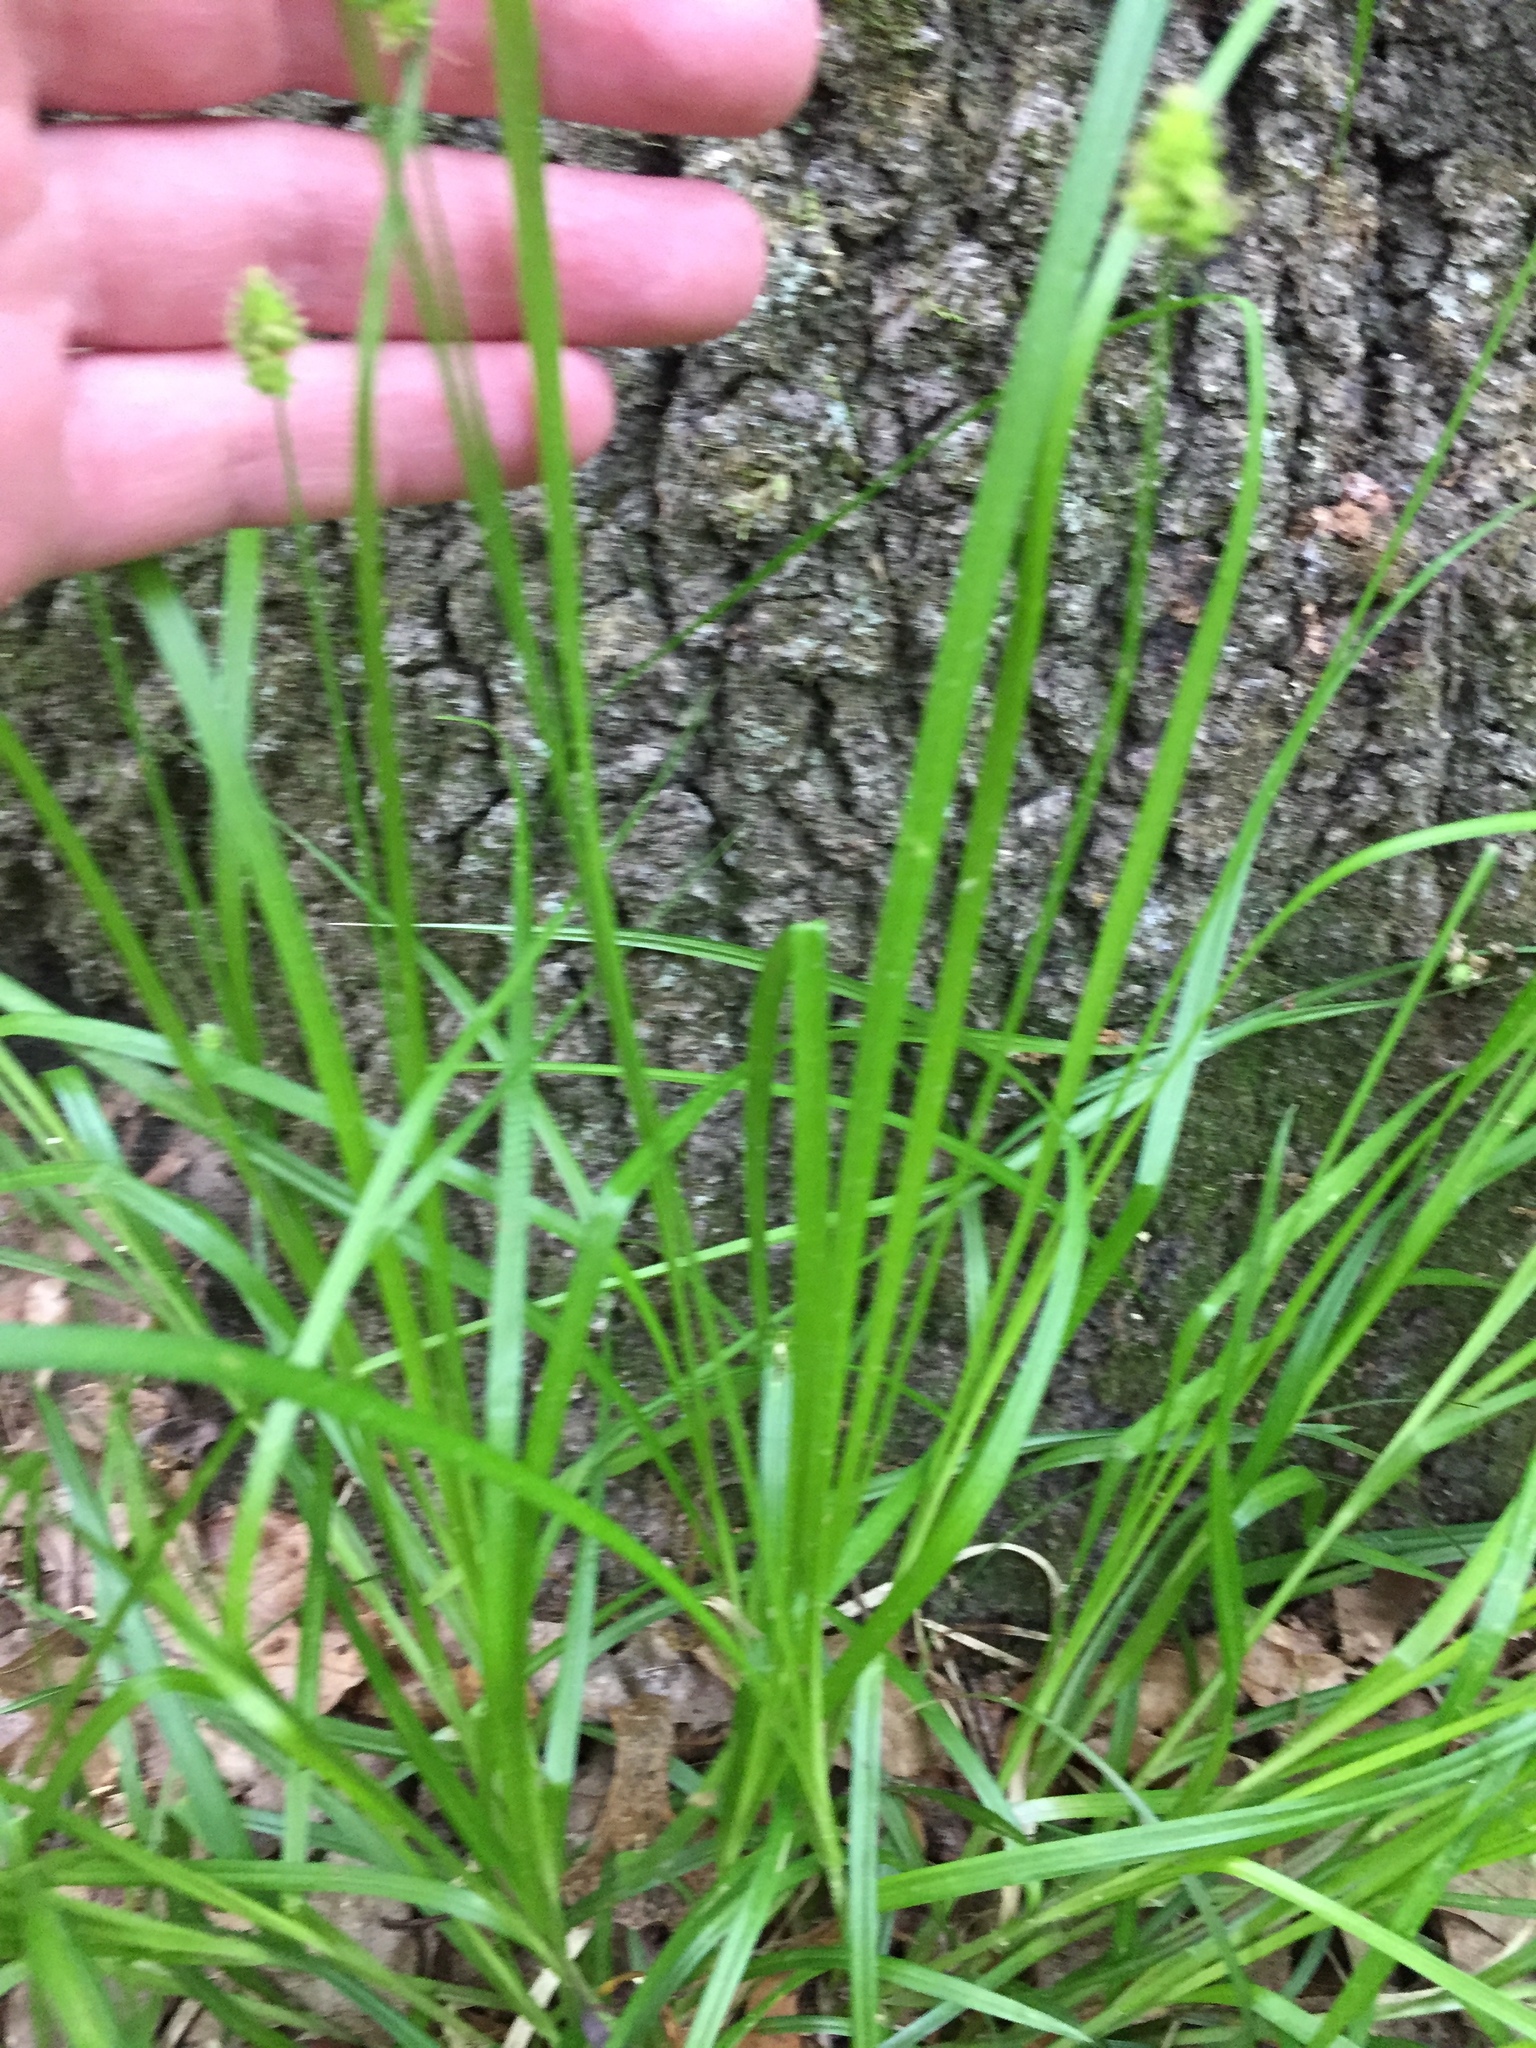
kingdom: Plantae
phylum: Tracheophyta
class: Liliopsida
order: Poales
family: Cyperaceae
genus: Carex
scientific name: Carex cephalophora
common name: Oval-headed sedge
